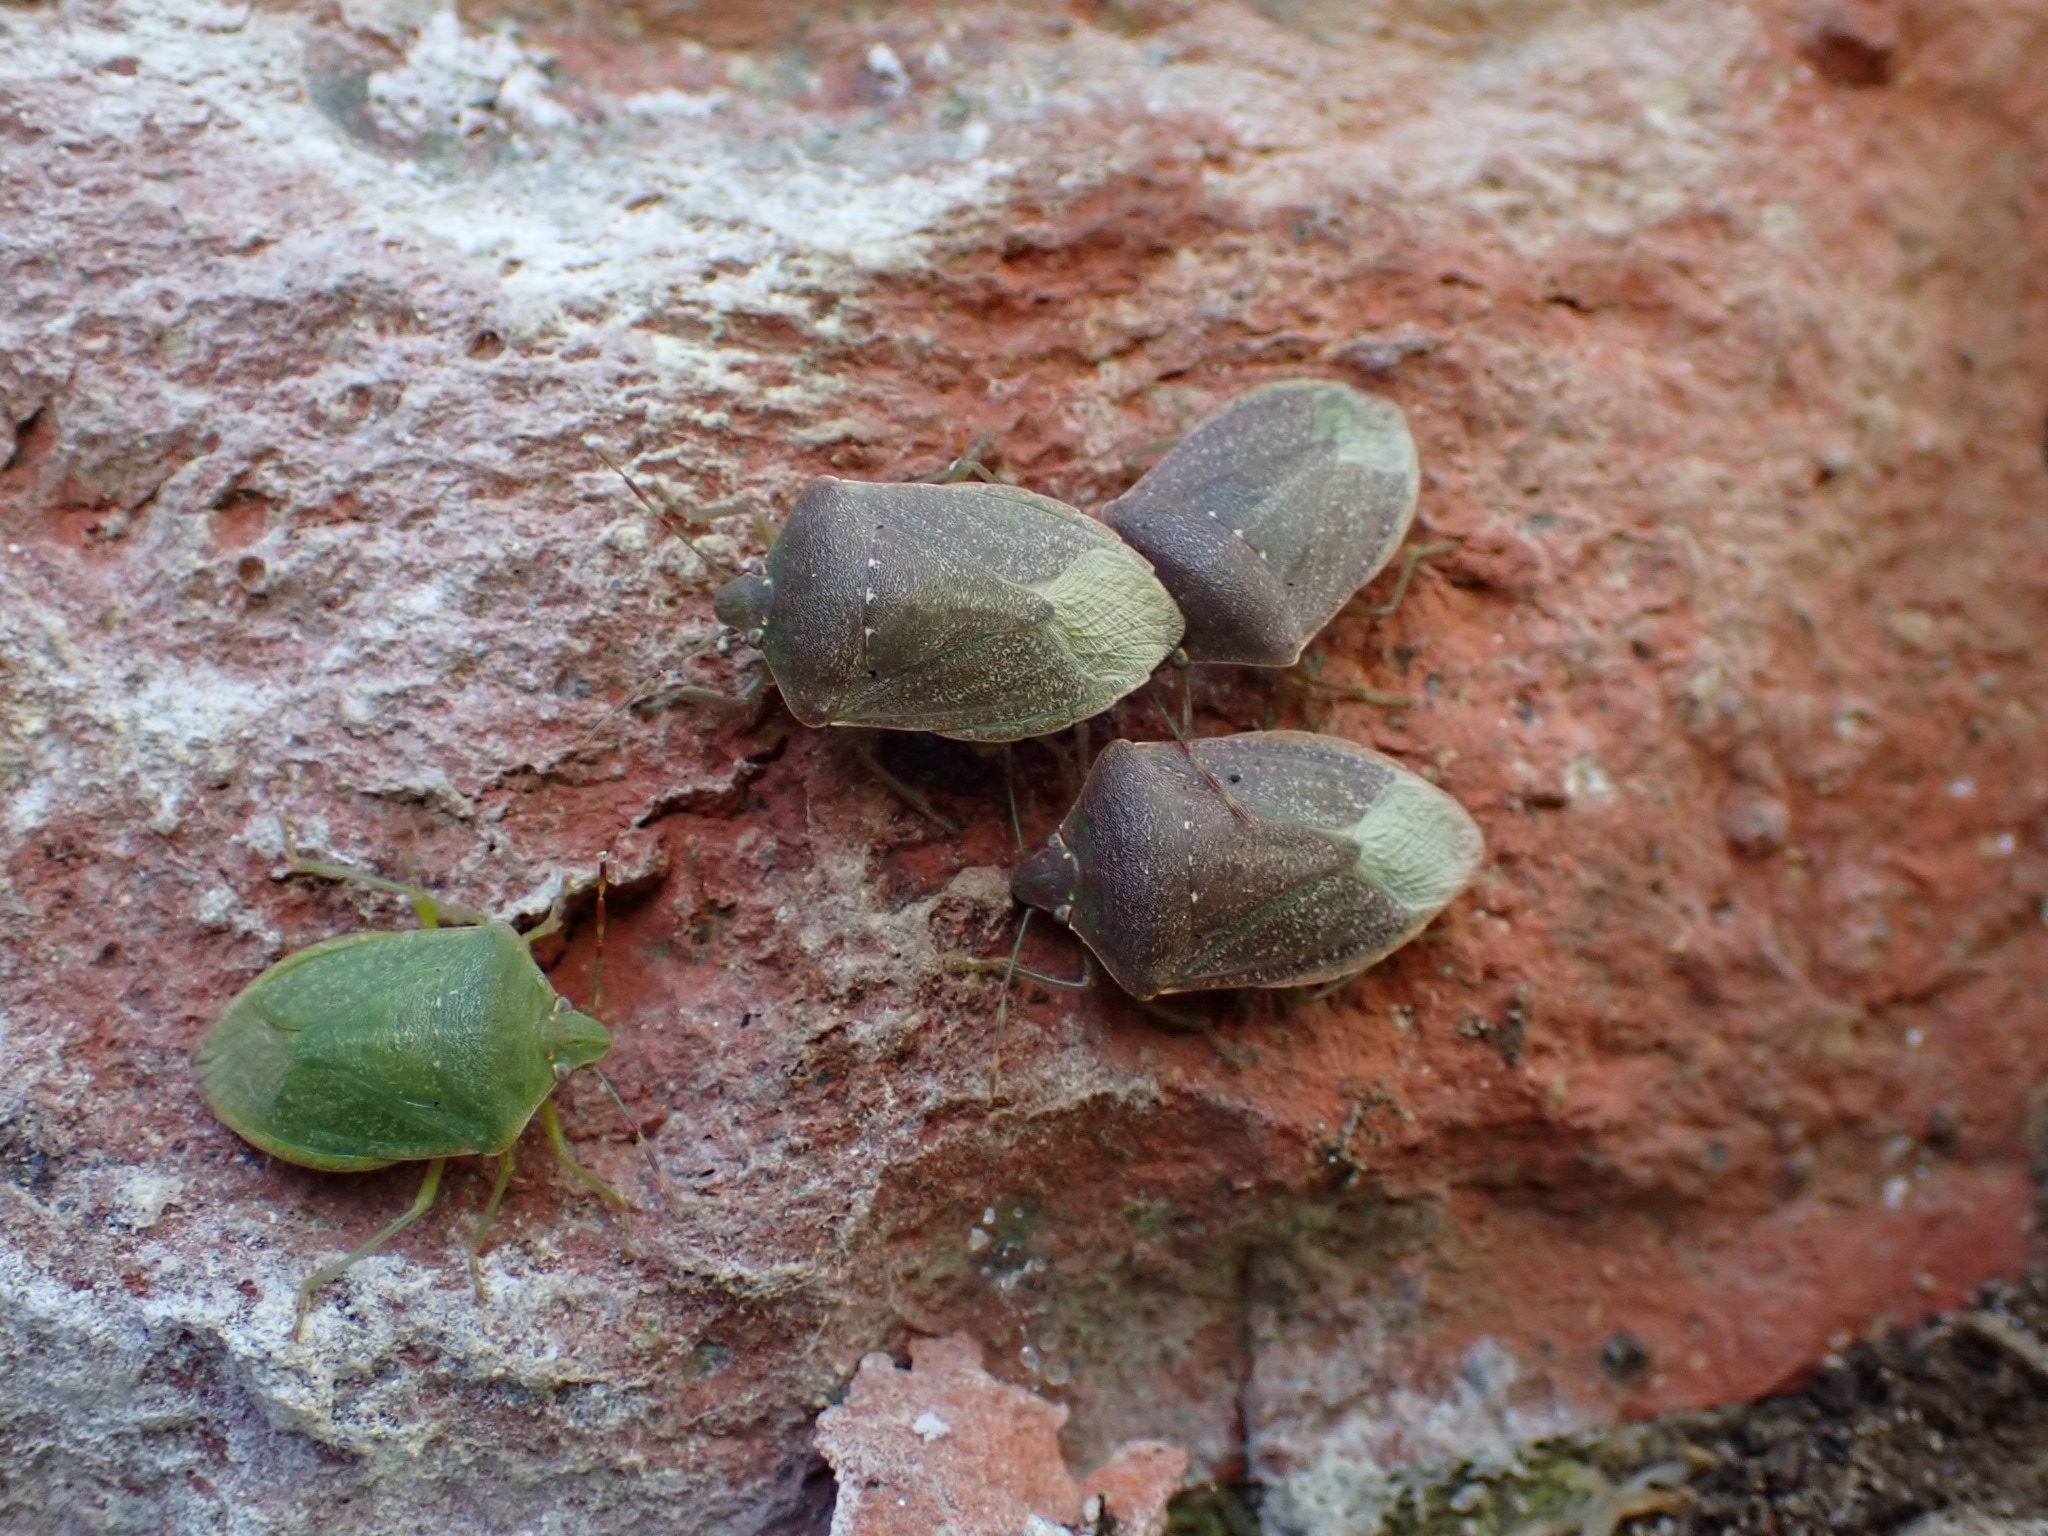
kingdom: Animalia
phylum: Arthropoda
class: Insecta
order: Hemiptera
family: Pentatomidae
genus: Nezara
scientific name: Nezara viridula
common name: Southern green stink bug
